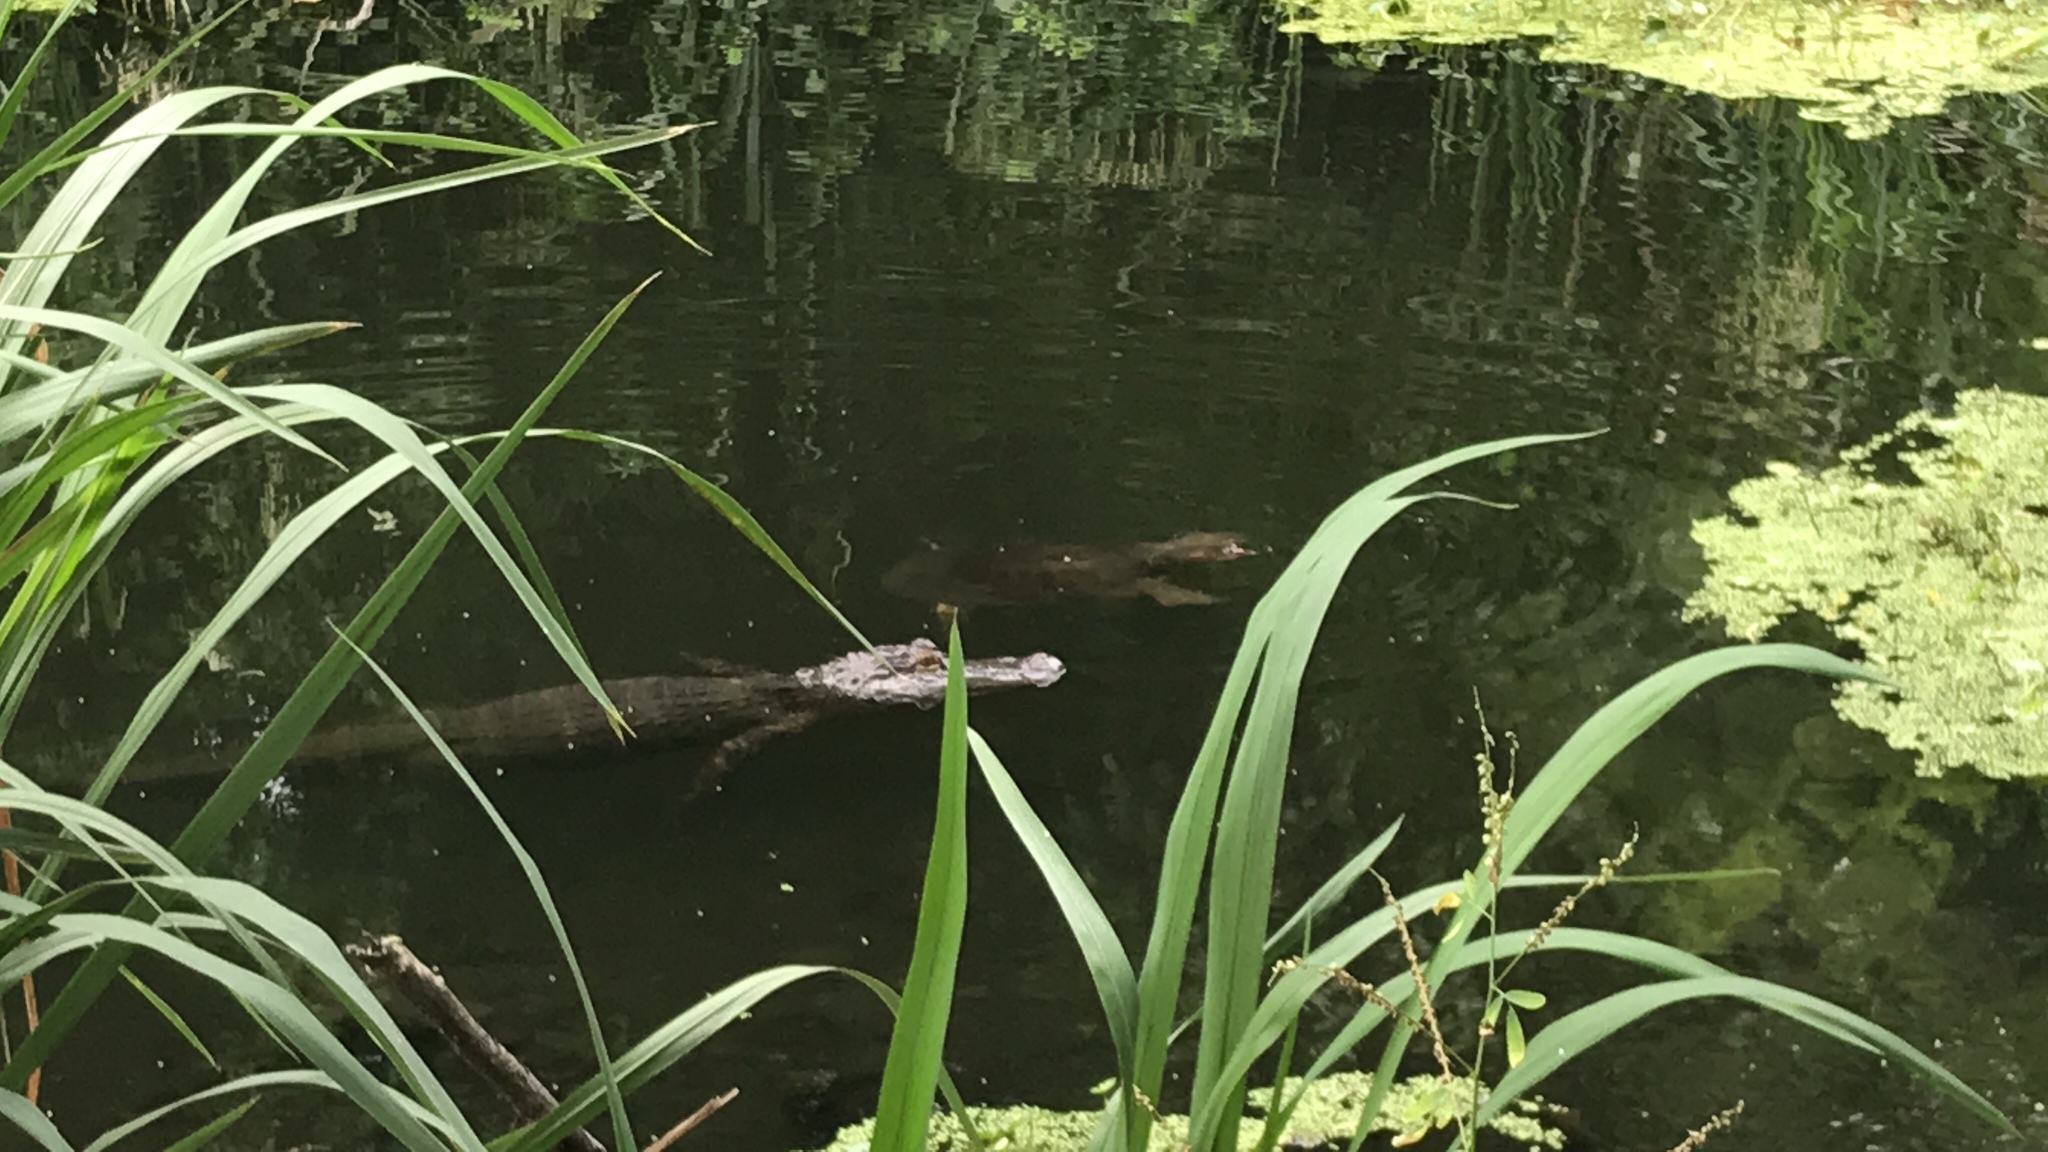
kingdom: Animalia
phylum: Chordata
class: Crocodylia
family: Alligatoridae
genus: Alligator
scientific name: Alligator mississippiensis
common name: American alligator
